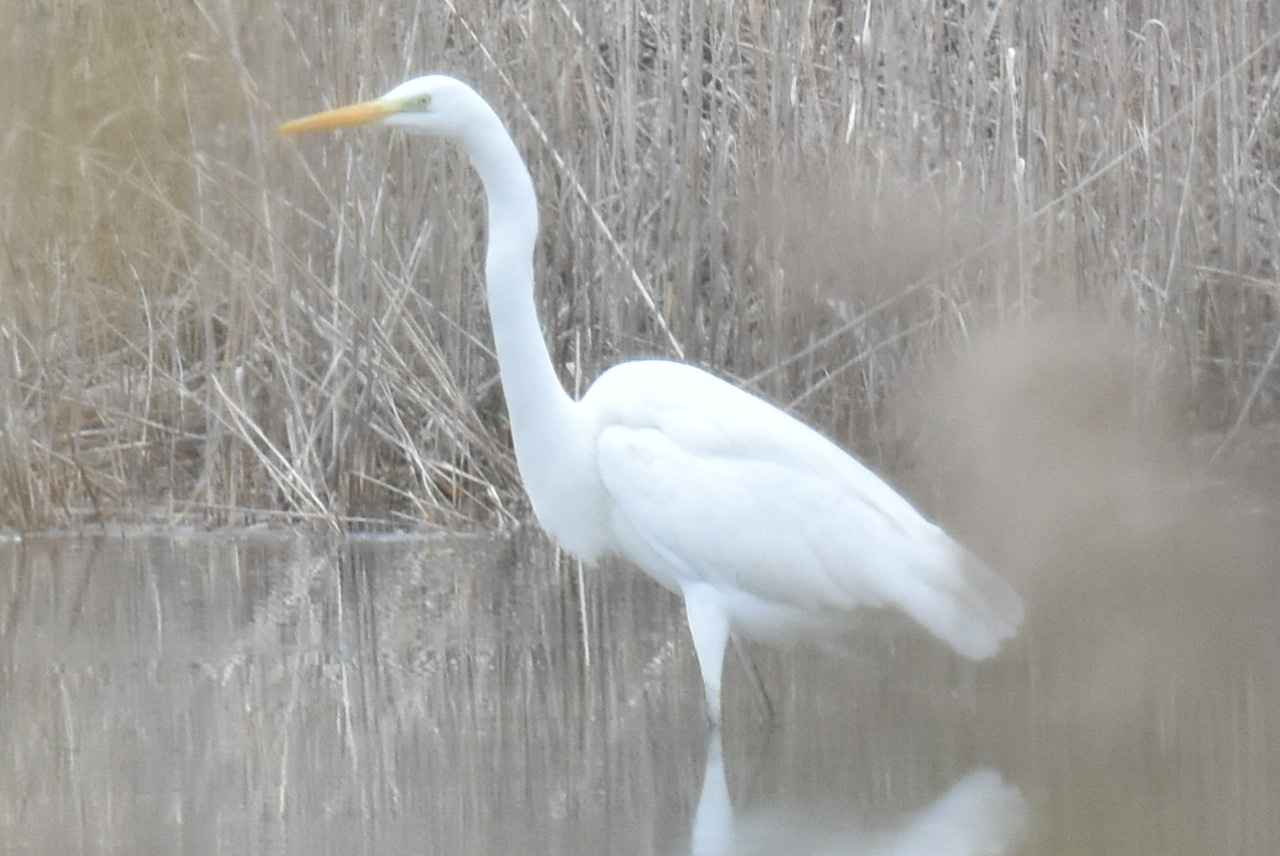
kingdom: Animalia
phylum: Chordata
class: Aves
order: Pelecaniformes
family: Ardeidae
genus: Ardea
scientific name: Ardea alba
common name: Great egret
